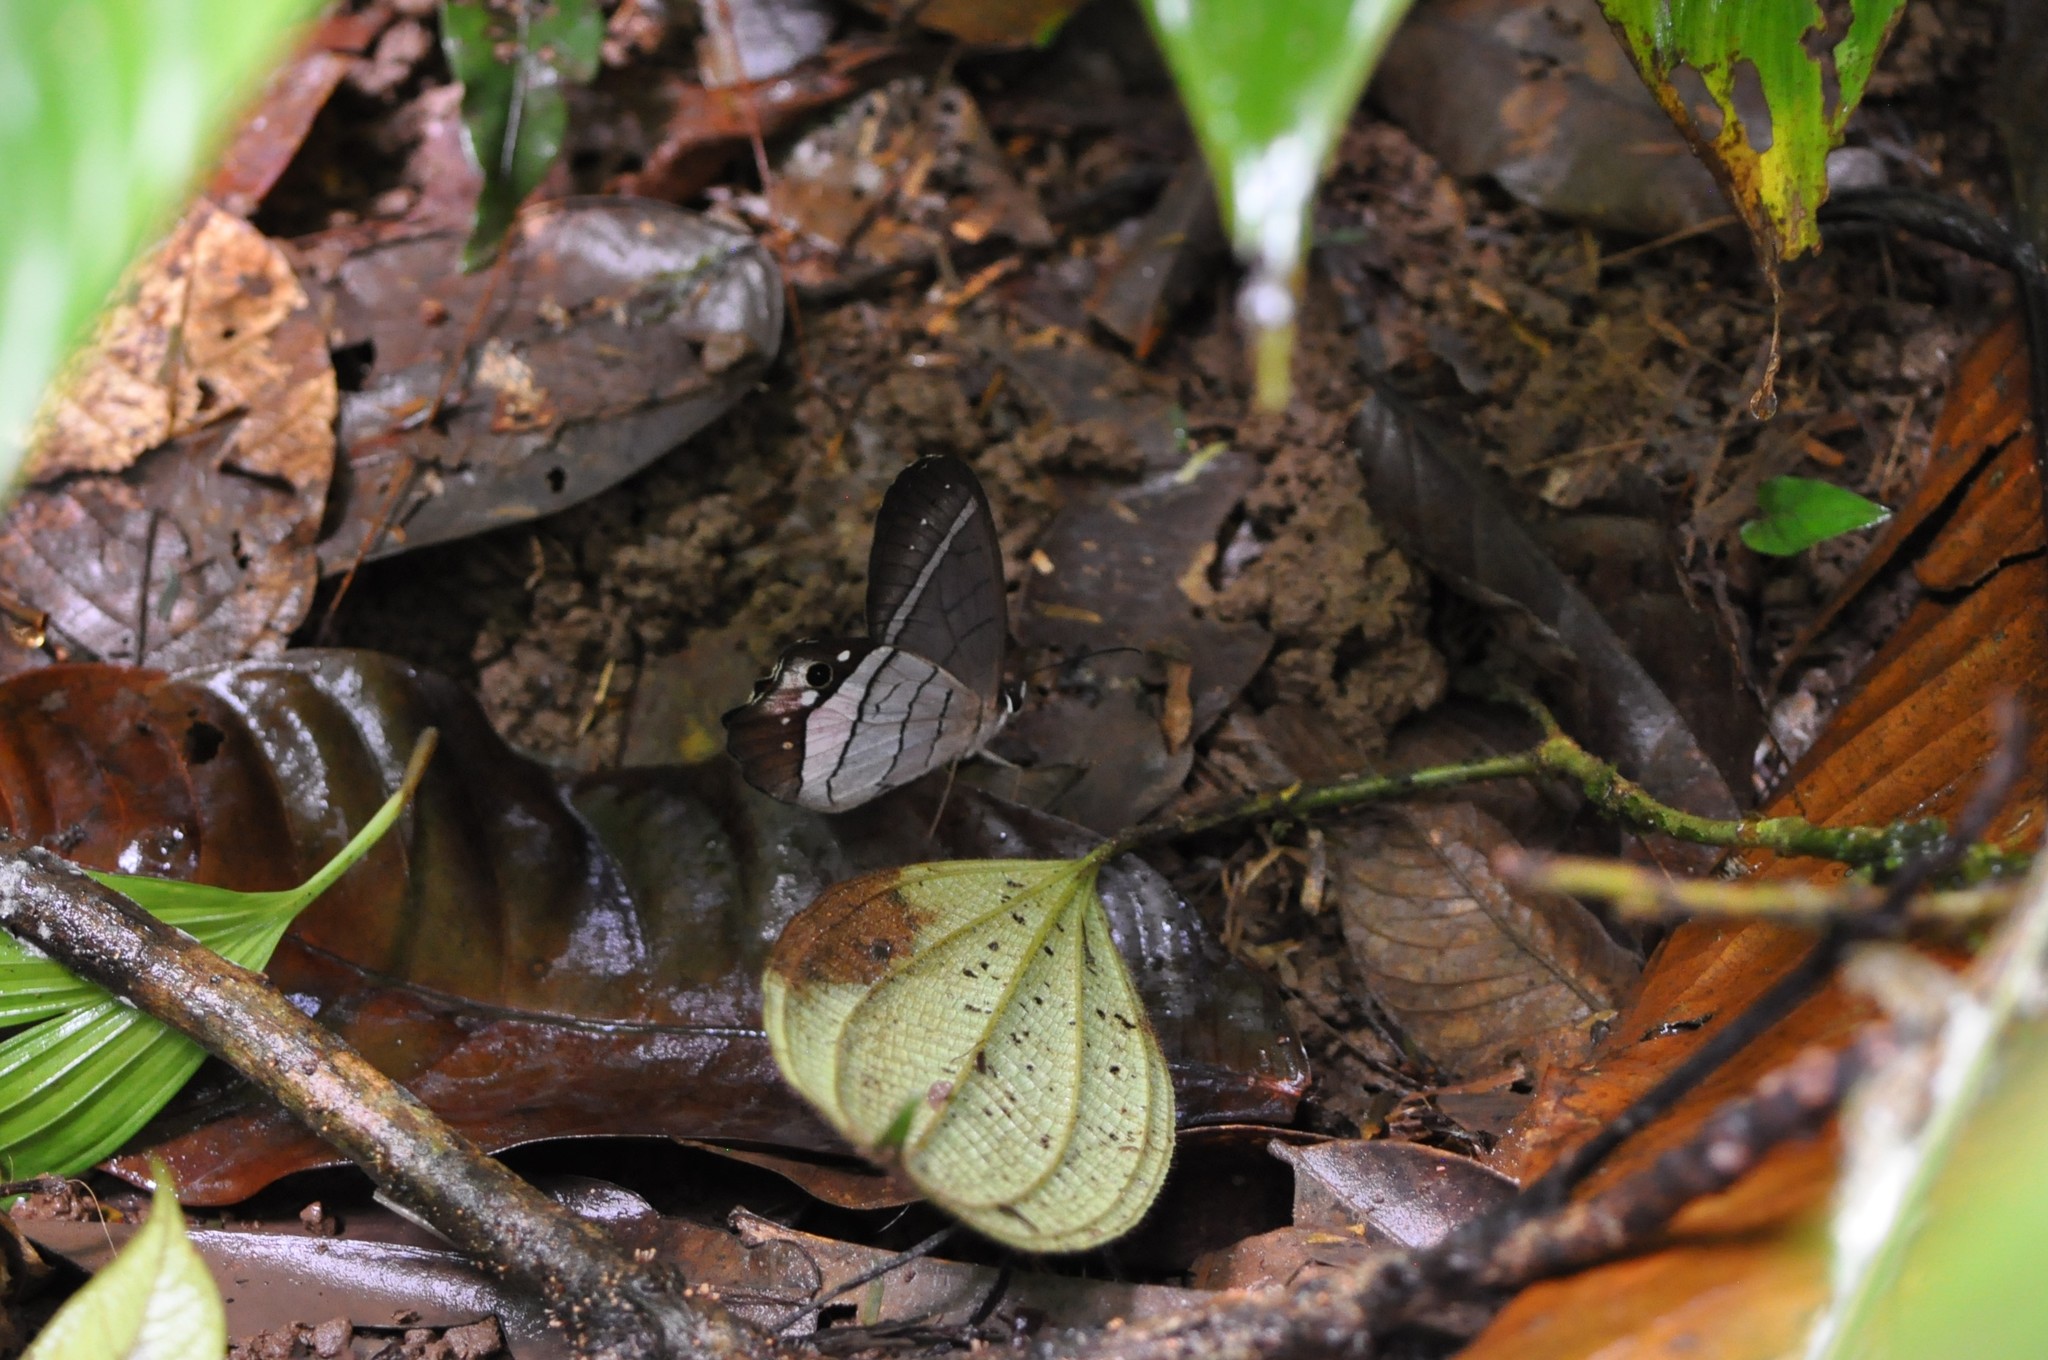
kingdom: Animalia
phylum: Arthropoda
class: Insecta
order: Lepidoptera
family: Nymphalidae
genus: Pierella
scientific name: Pierella helvina
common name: Red-washed satyr
